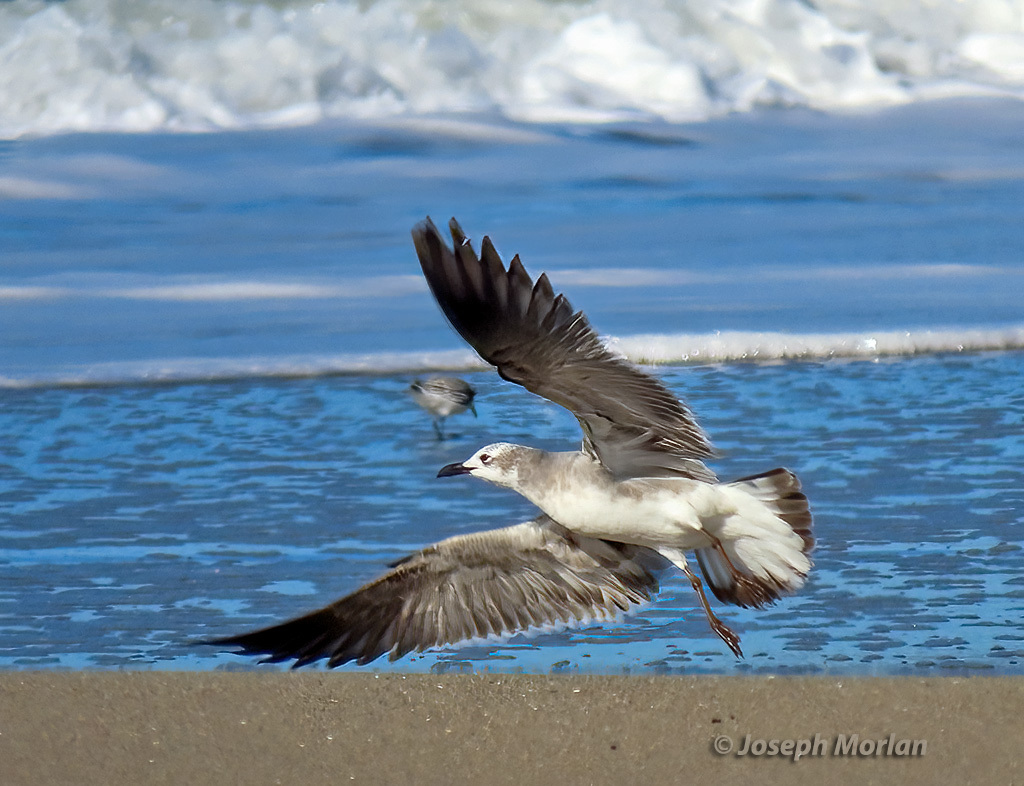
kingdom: Animalia
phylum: Chordata
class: Aves
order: Charadriiformes
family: Laridae
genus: Leucophaeus
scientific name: Leucophaeus atricilla
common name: Laughing gull
